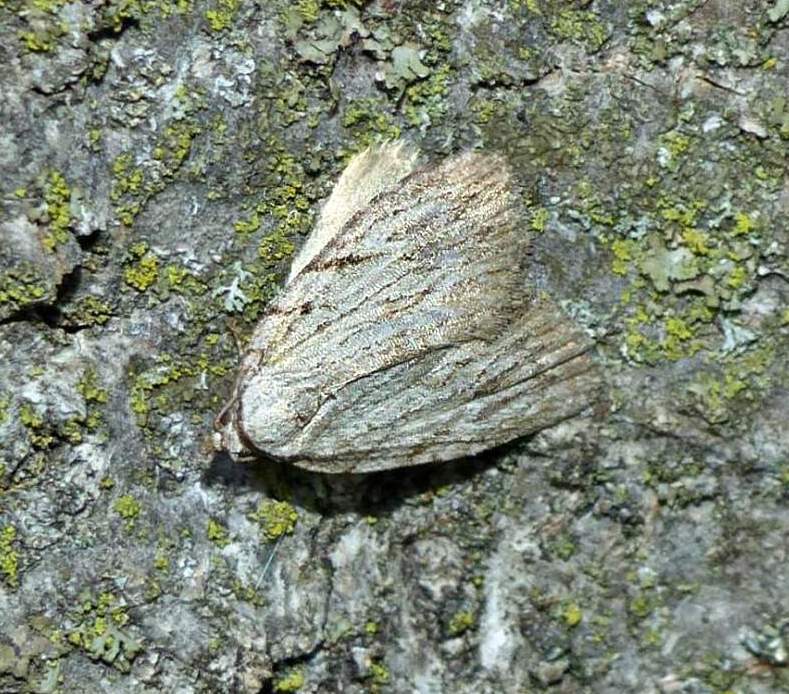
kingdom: Animalia
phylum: Arthropoda
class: Insecta
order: Lepidoptera
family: Noctuidae
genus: Balsa
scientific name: Balsa tristrigella
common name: Three-lined balsa moth
